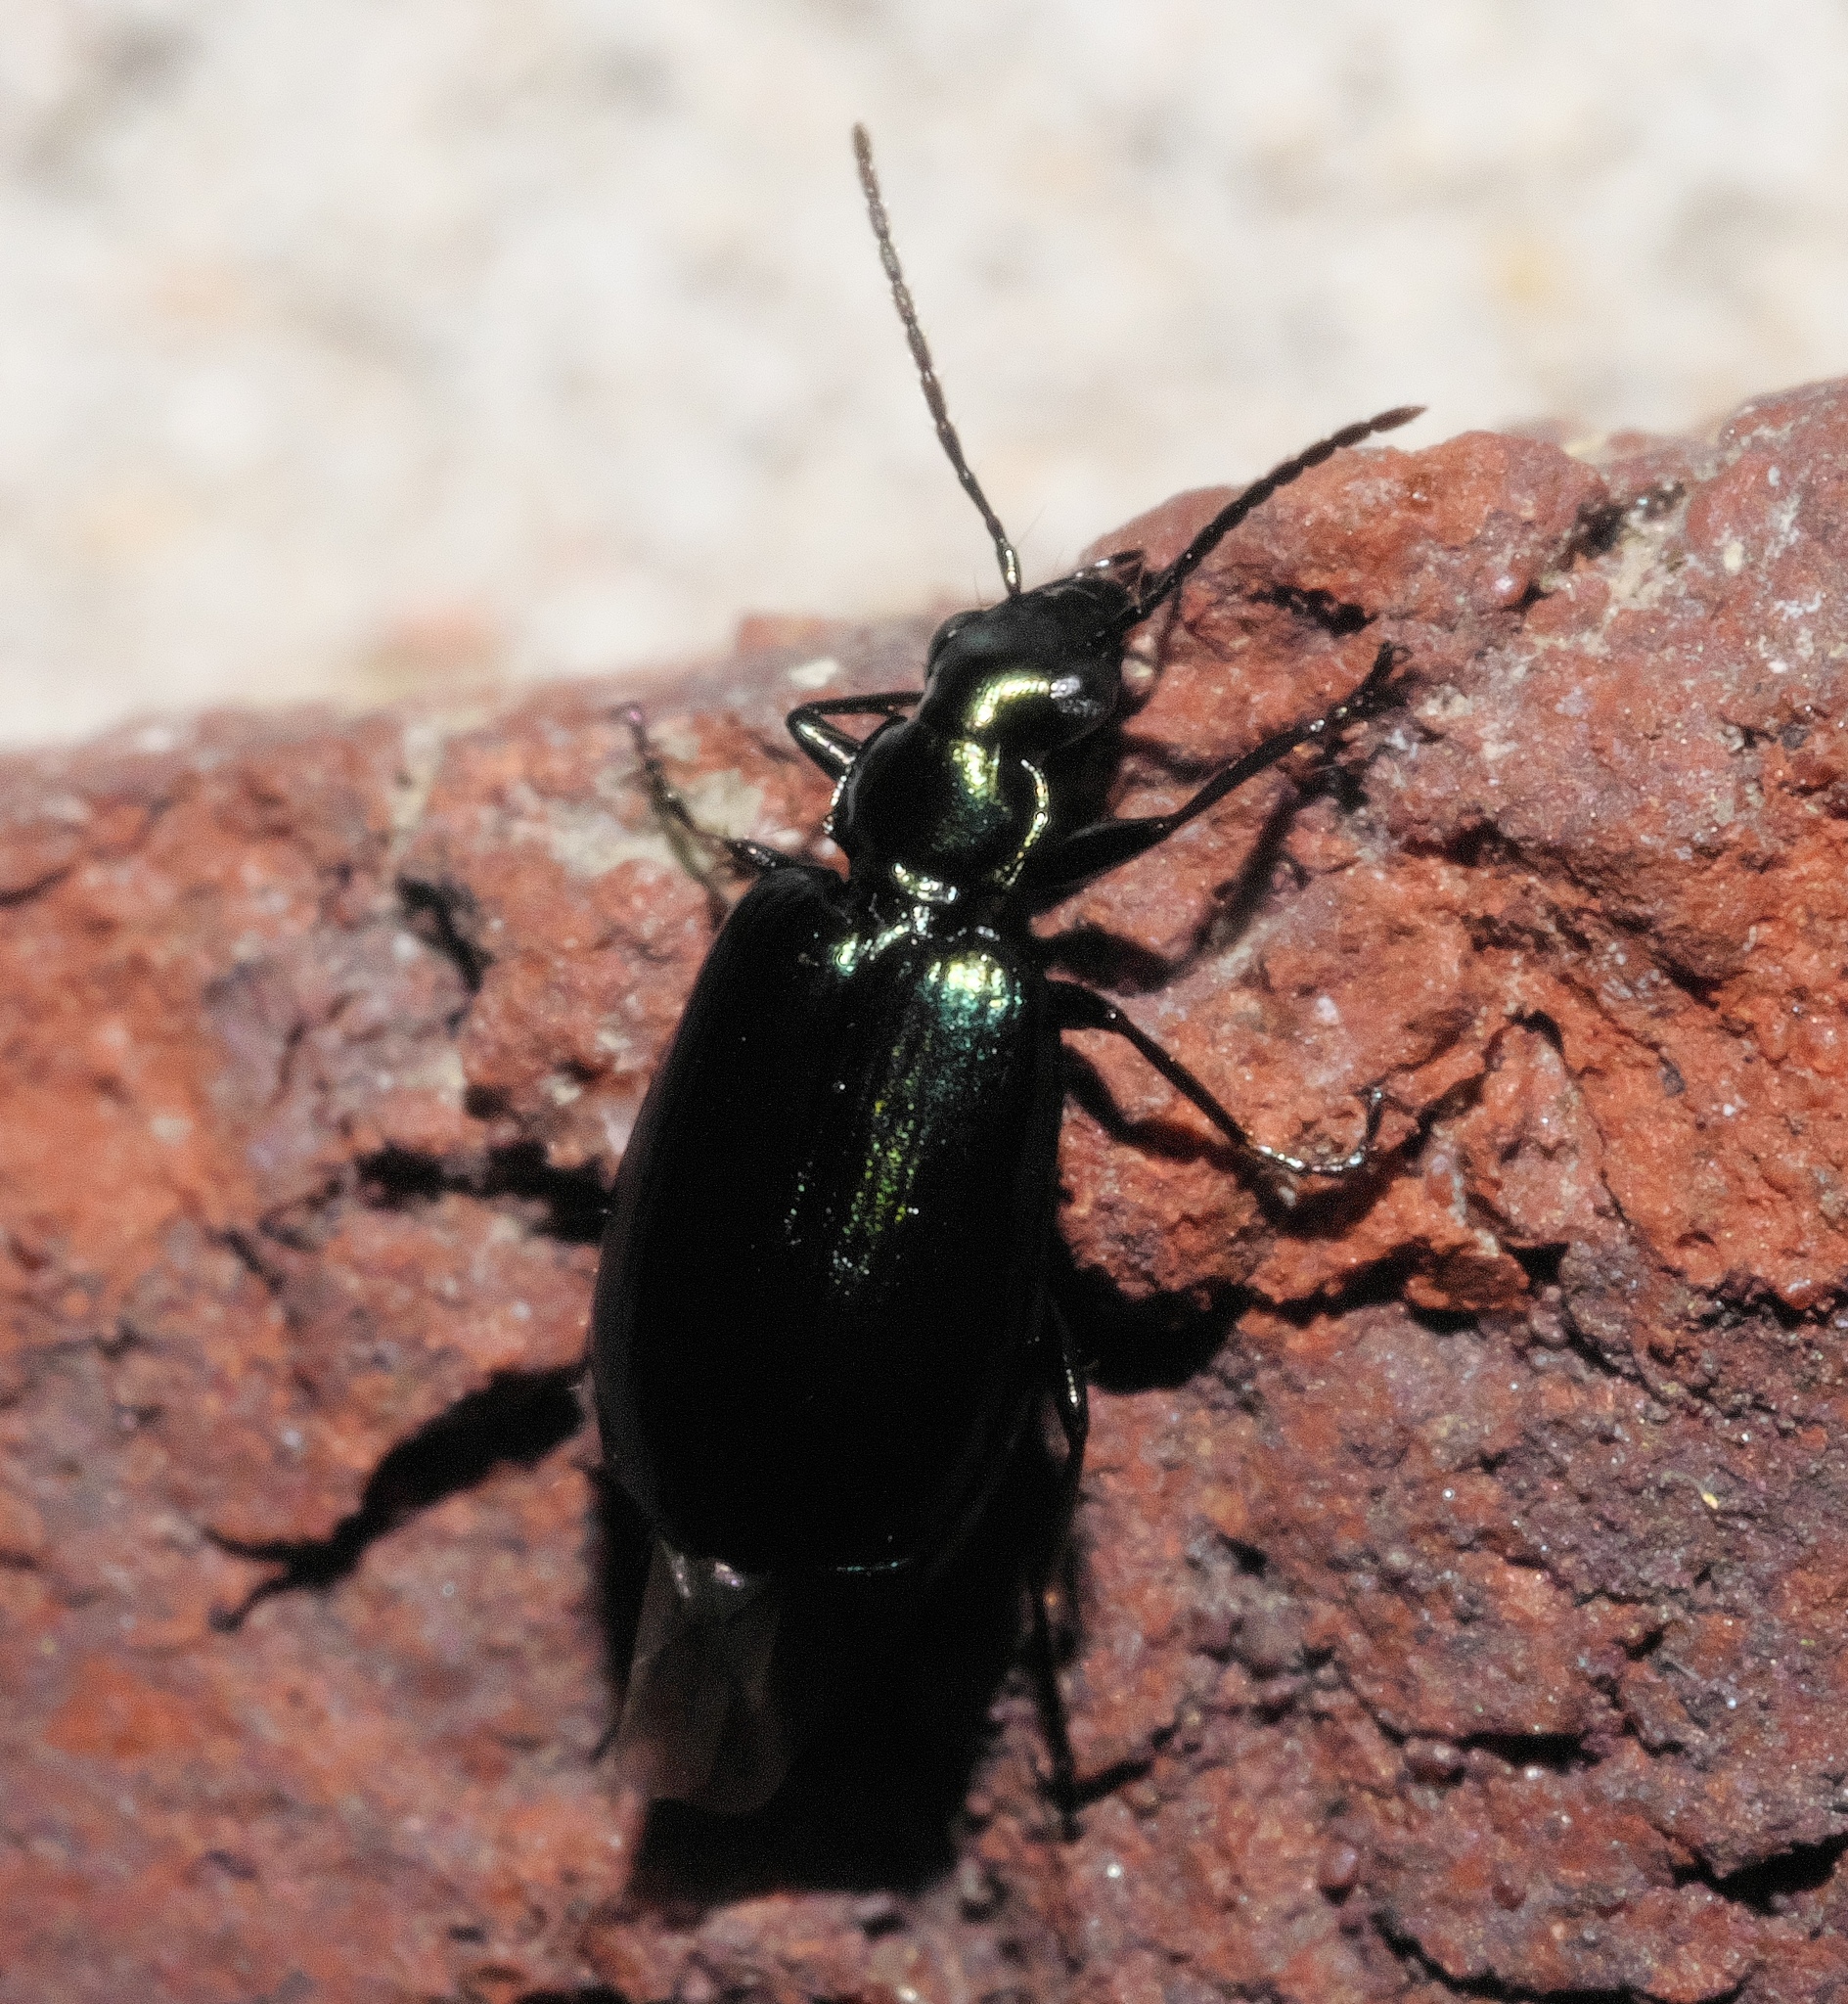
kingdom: Animalia
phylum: Arthropoda
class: Insecta
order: Coleoptera
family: Carabidae
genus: Lebia
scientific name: Lebia viridis
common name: Flower lebia beetle
